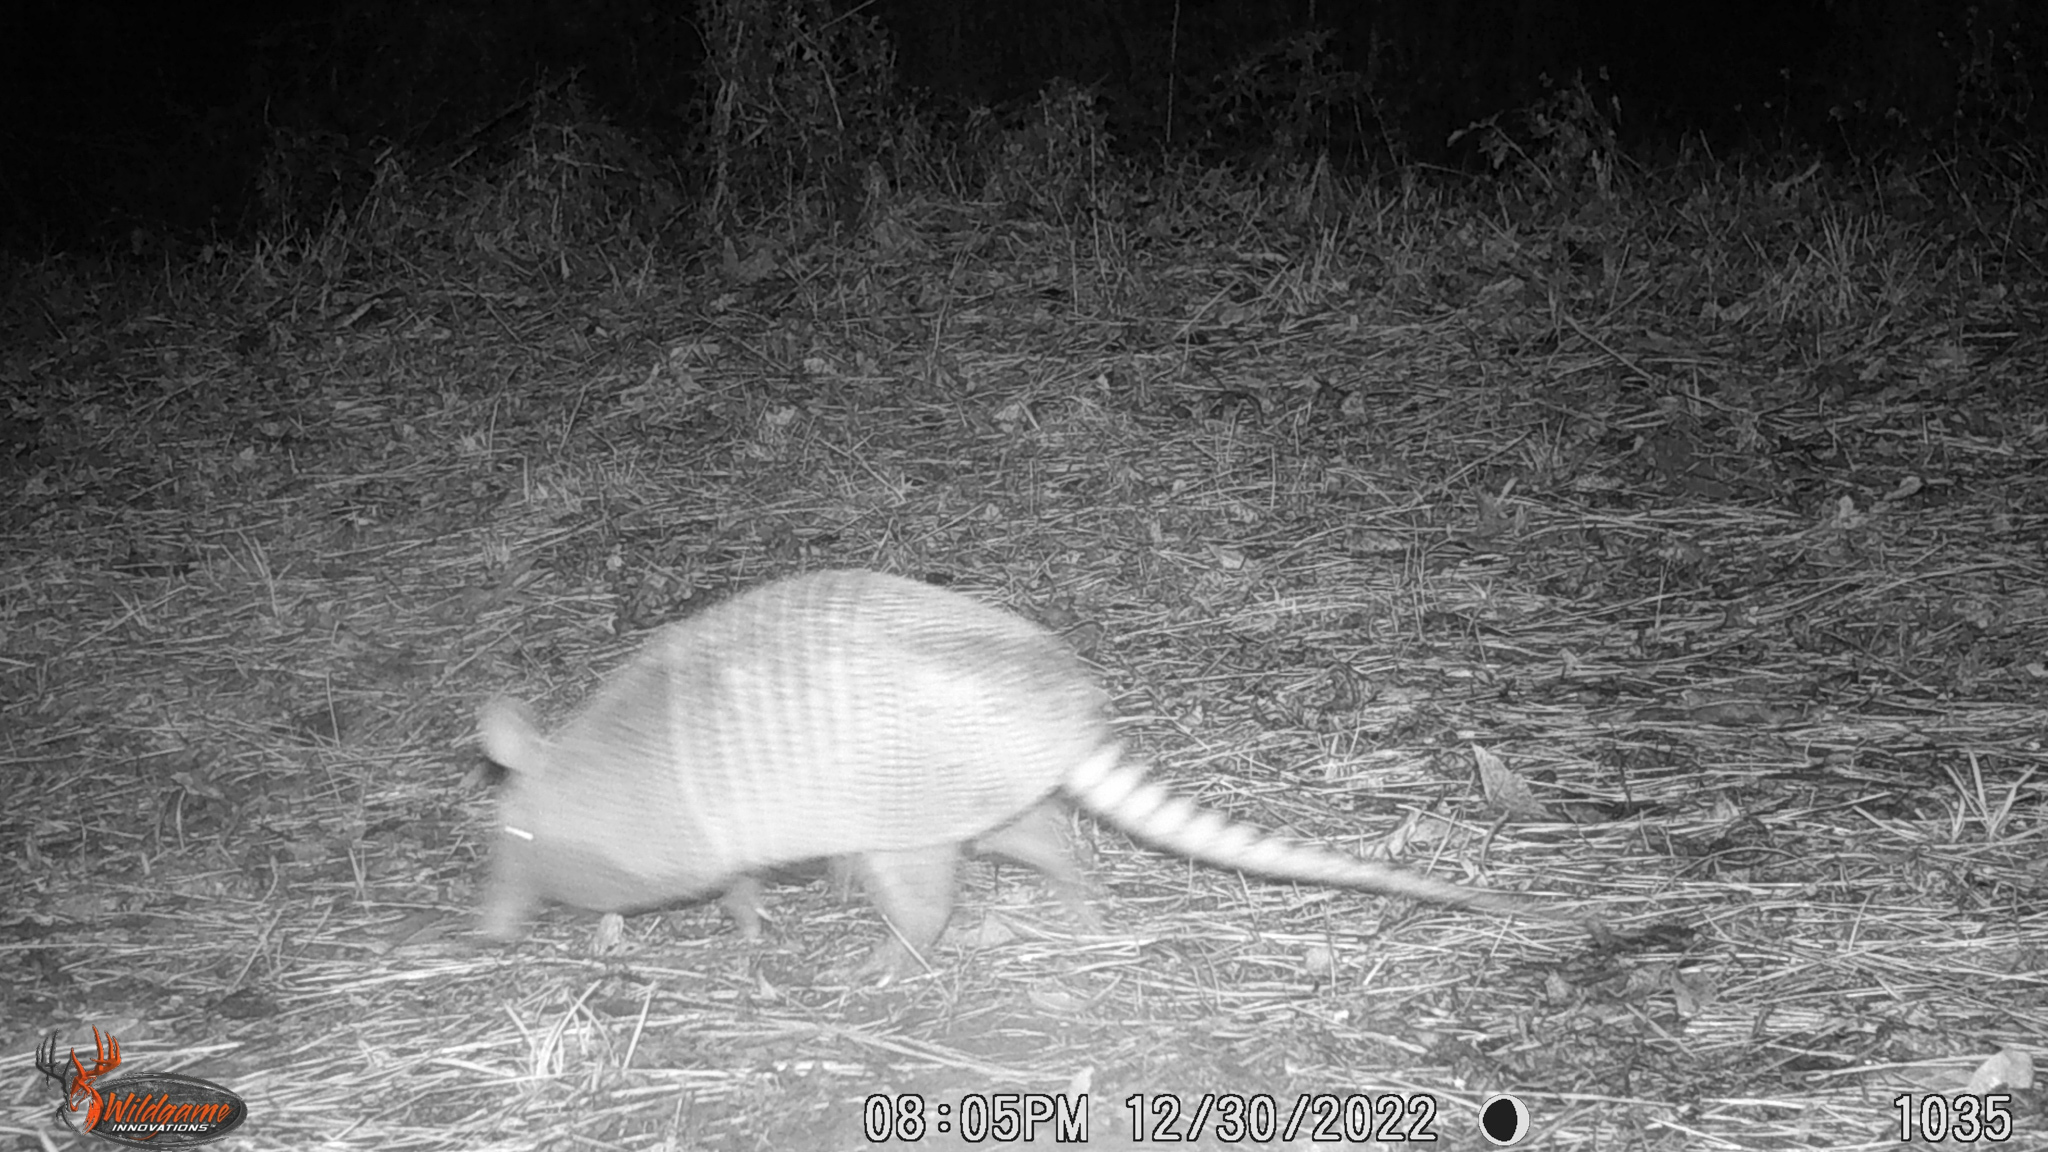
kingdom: Animalia
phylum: Chordata
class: Mammalia
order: Cingulata
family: Dasypodidae
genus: Dasypus
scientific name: Dasypus novemcinctus
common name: Nine-banded armadillo
